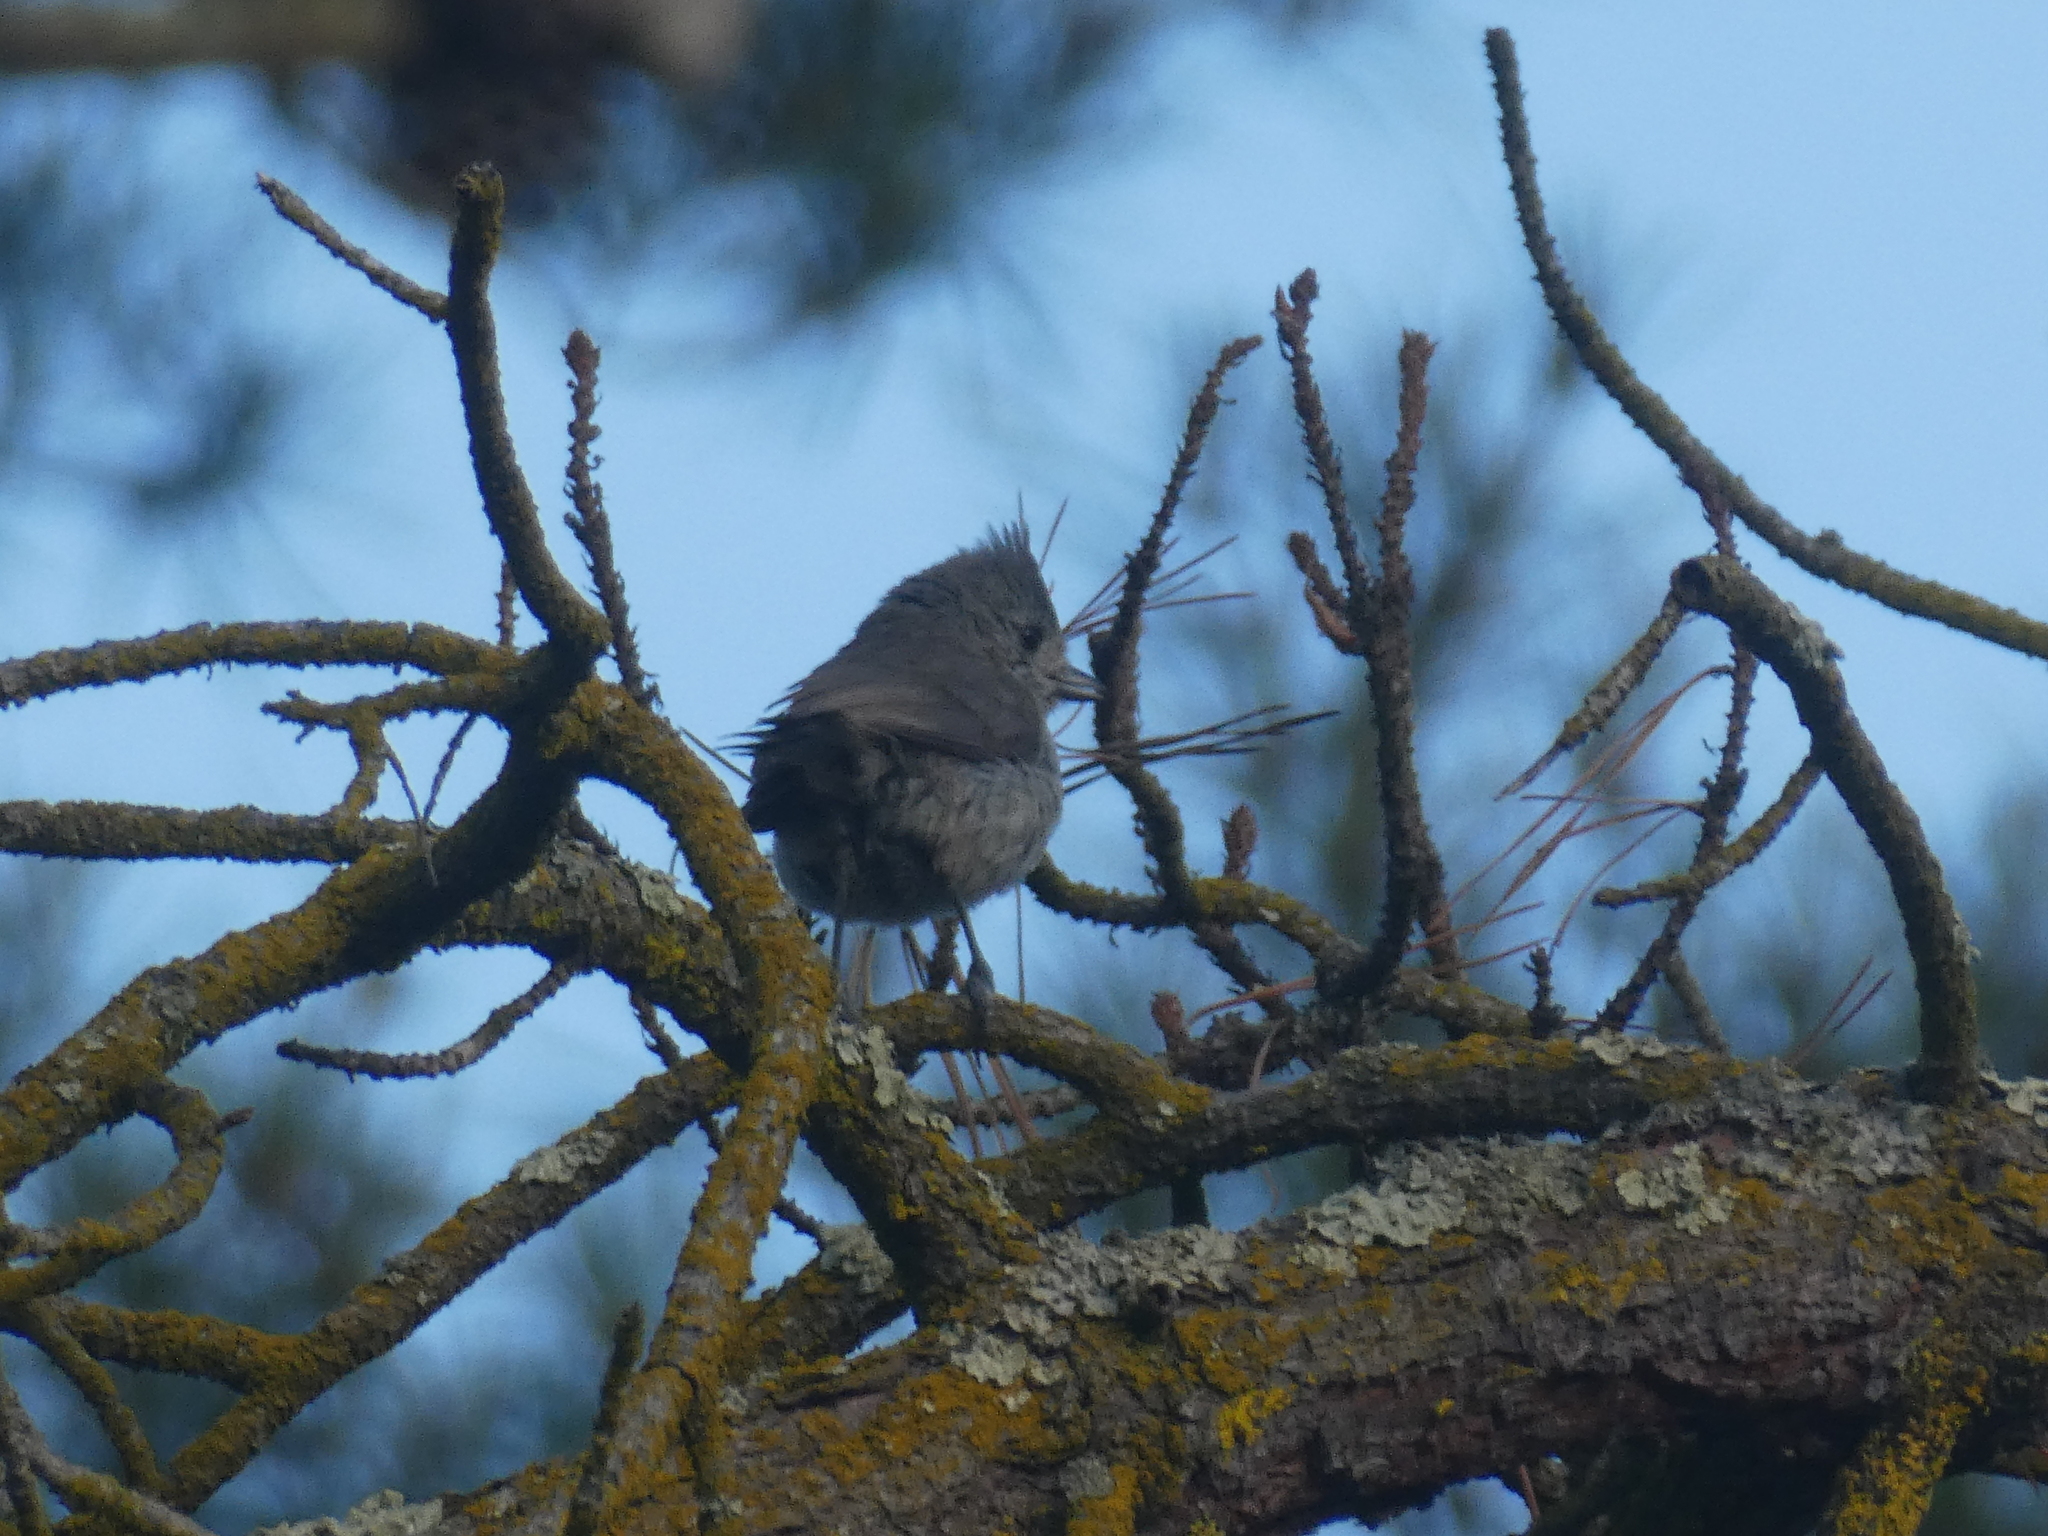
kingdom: Animalia
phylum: Chordata
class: Aves
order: Passeriformes
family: Paridae
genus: Baeolophus
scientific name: Baeolophus inornatus
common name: Oak titmouse
